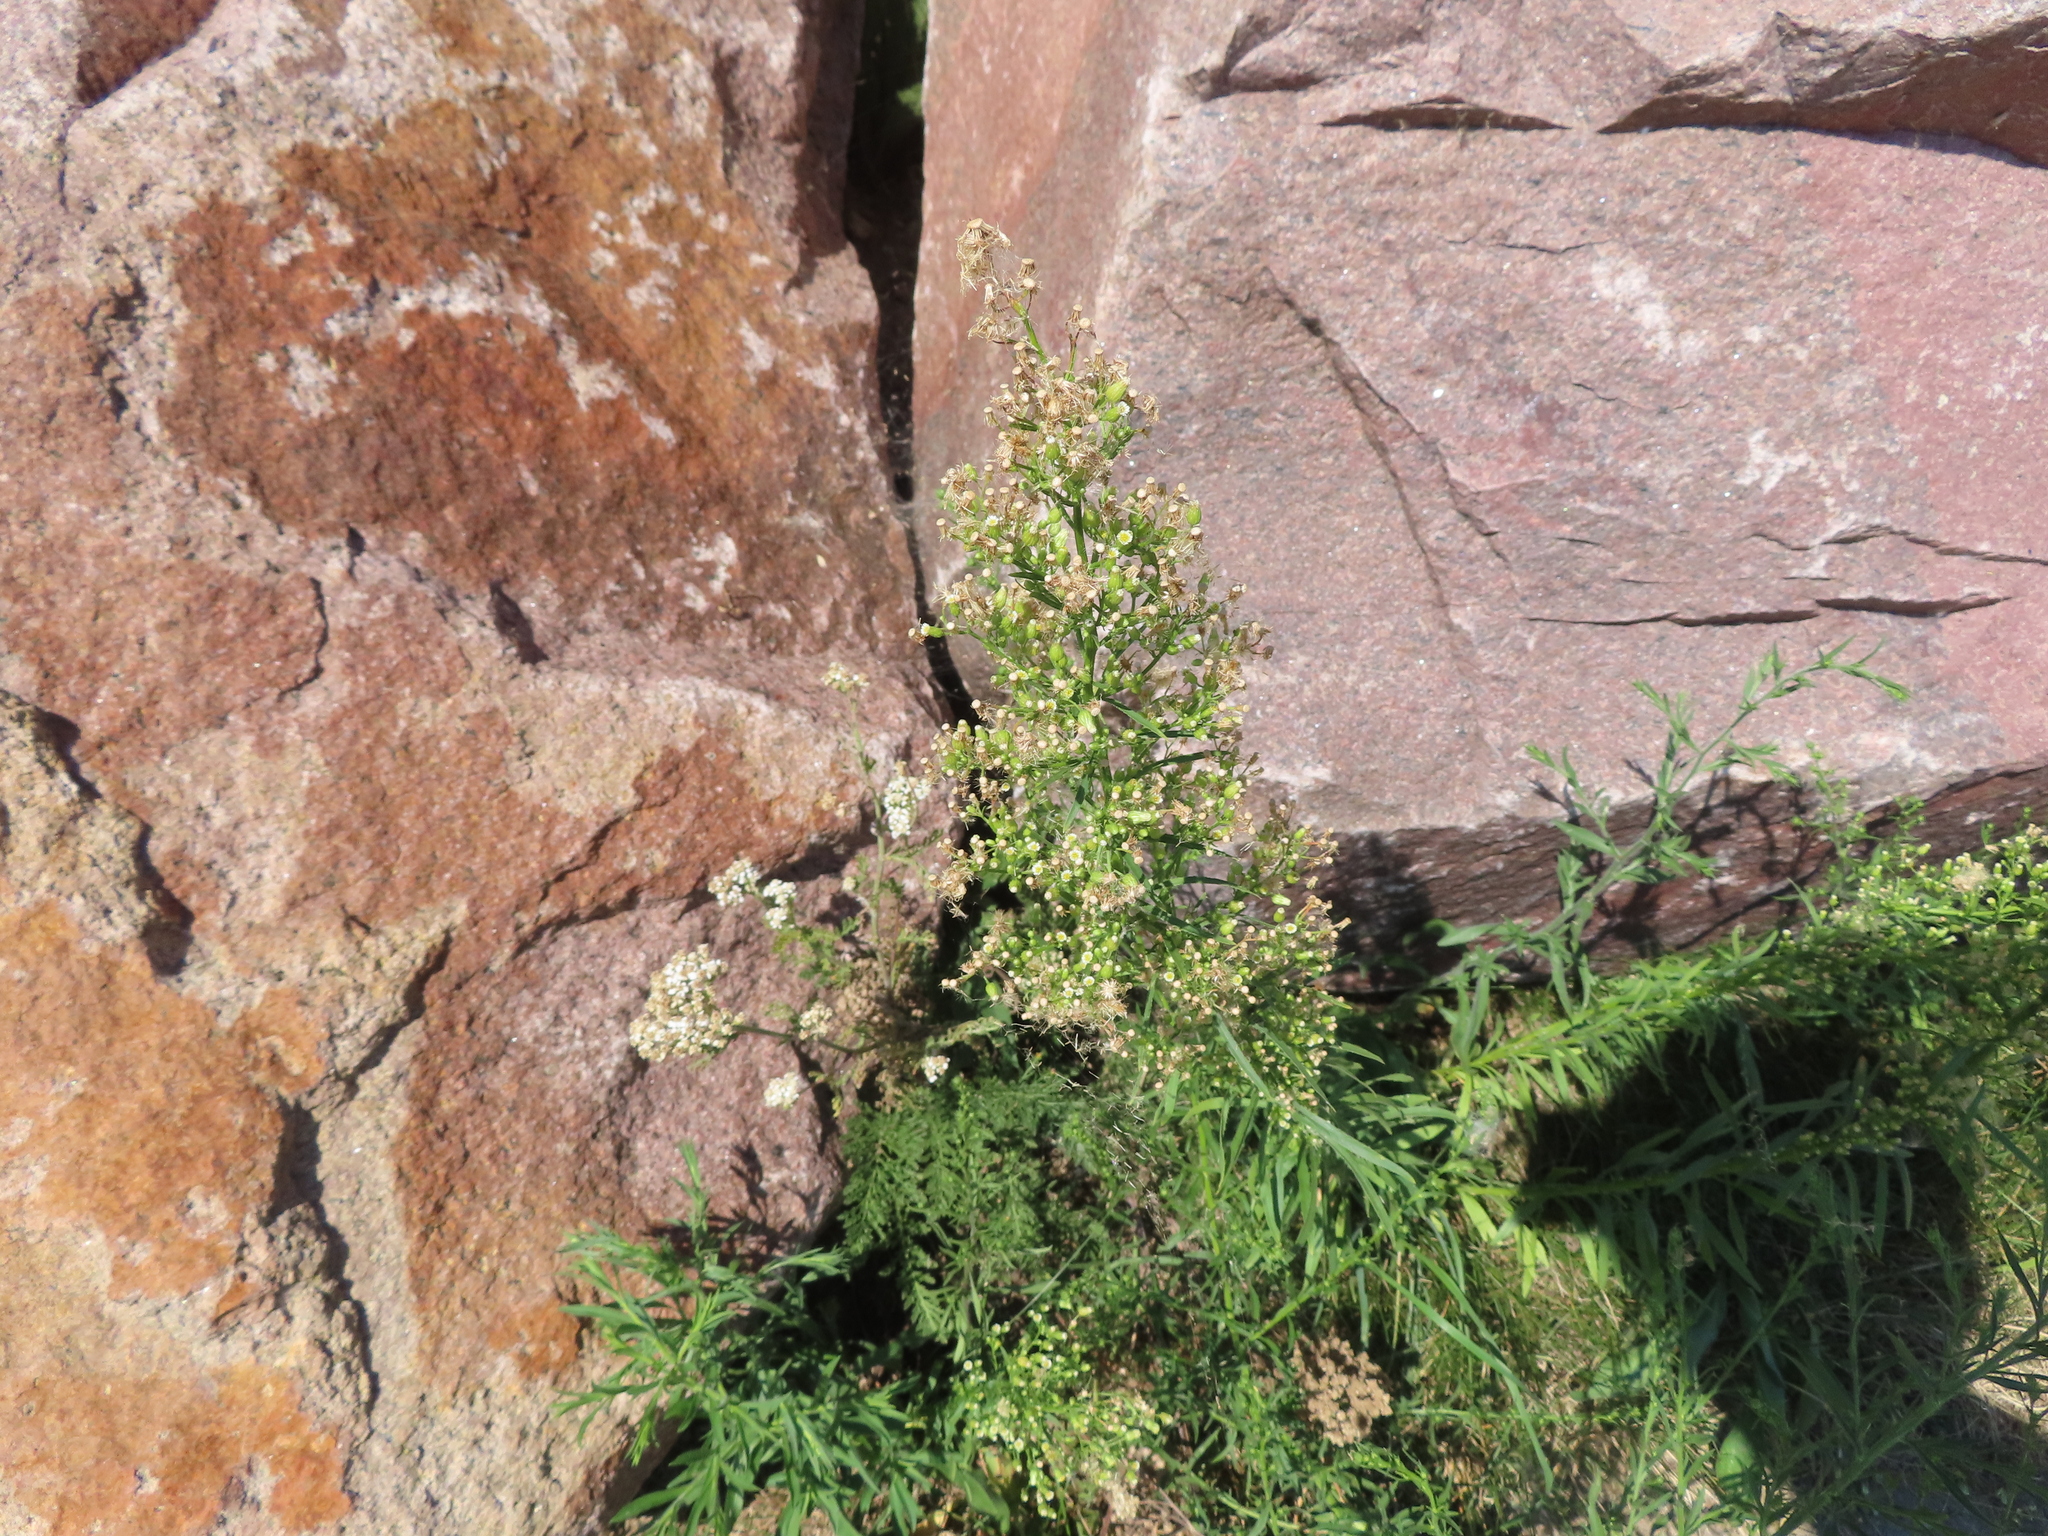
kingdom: Plantae
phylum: Tracheophyta
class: Magnoliopsida
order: Asterales
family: Asteraceae
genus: Erigeron
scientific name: Erigeron canadensis
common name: Canadian fleabane
